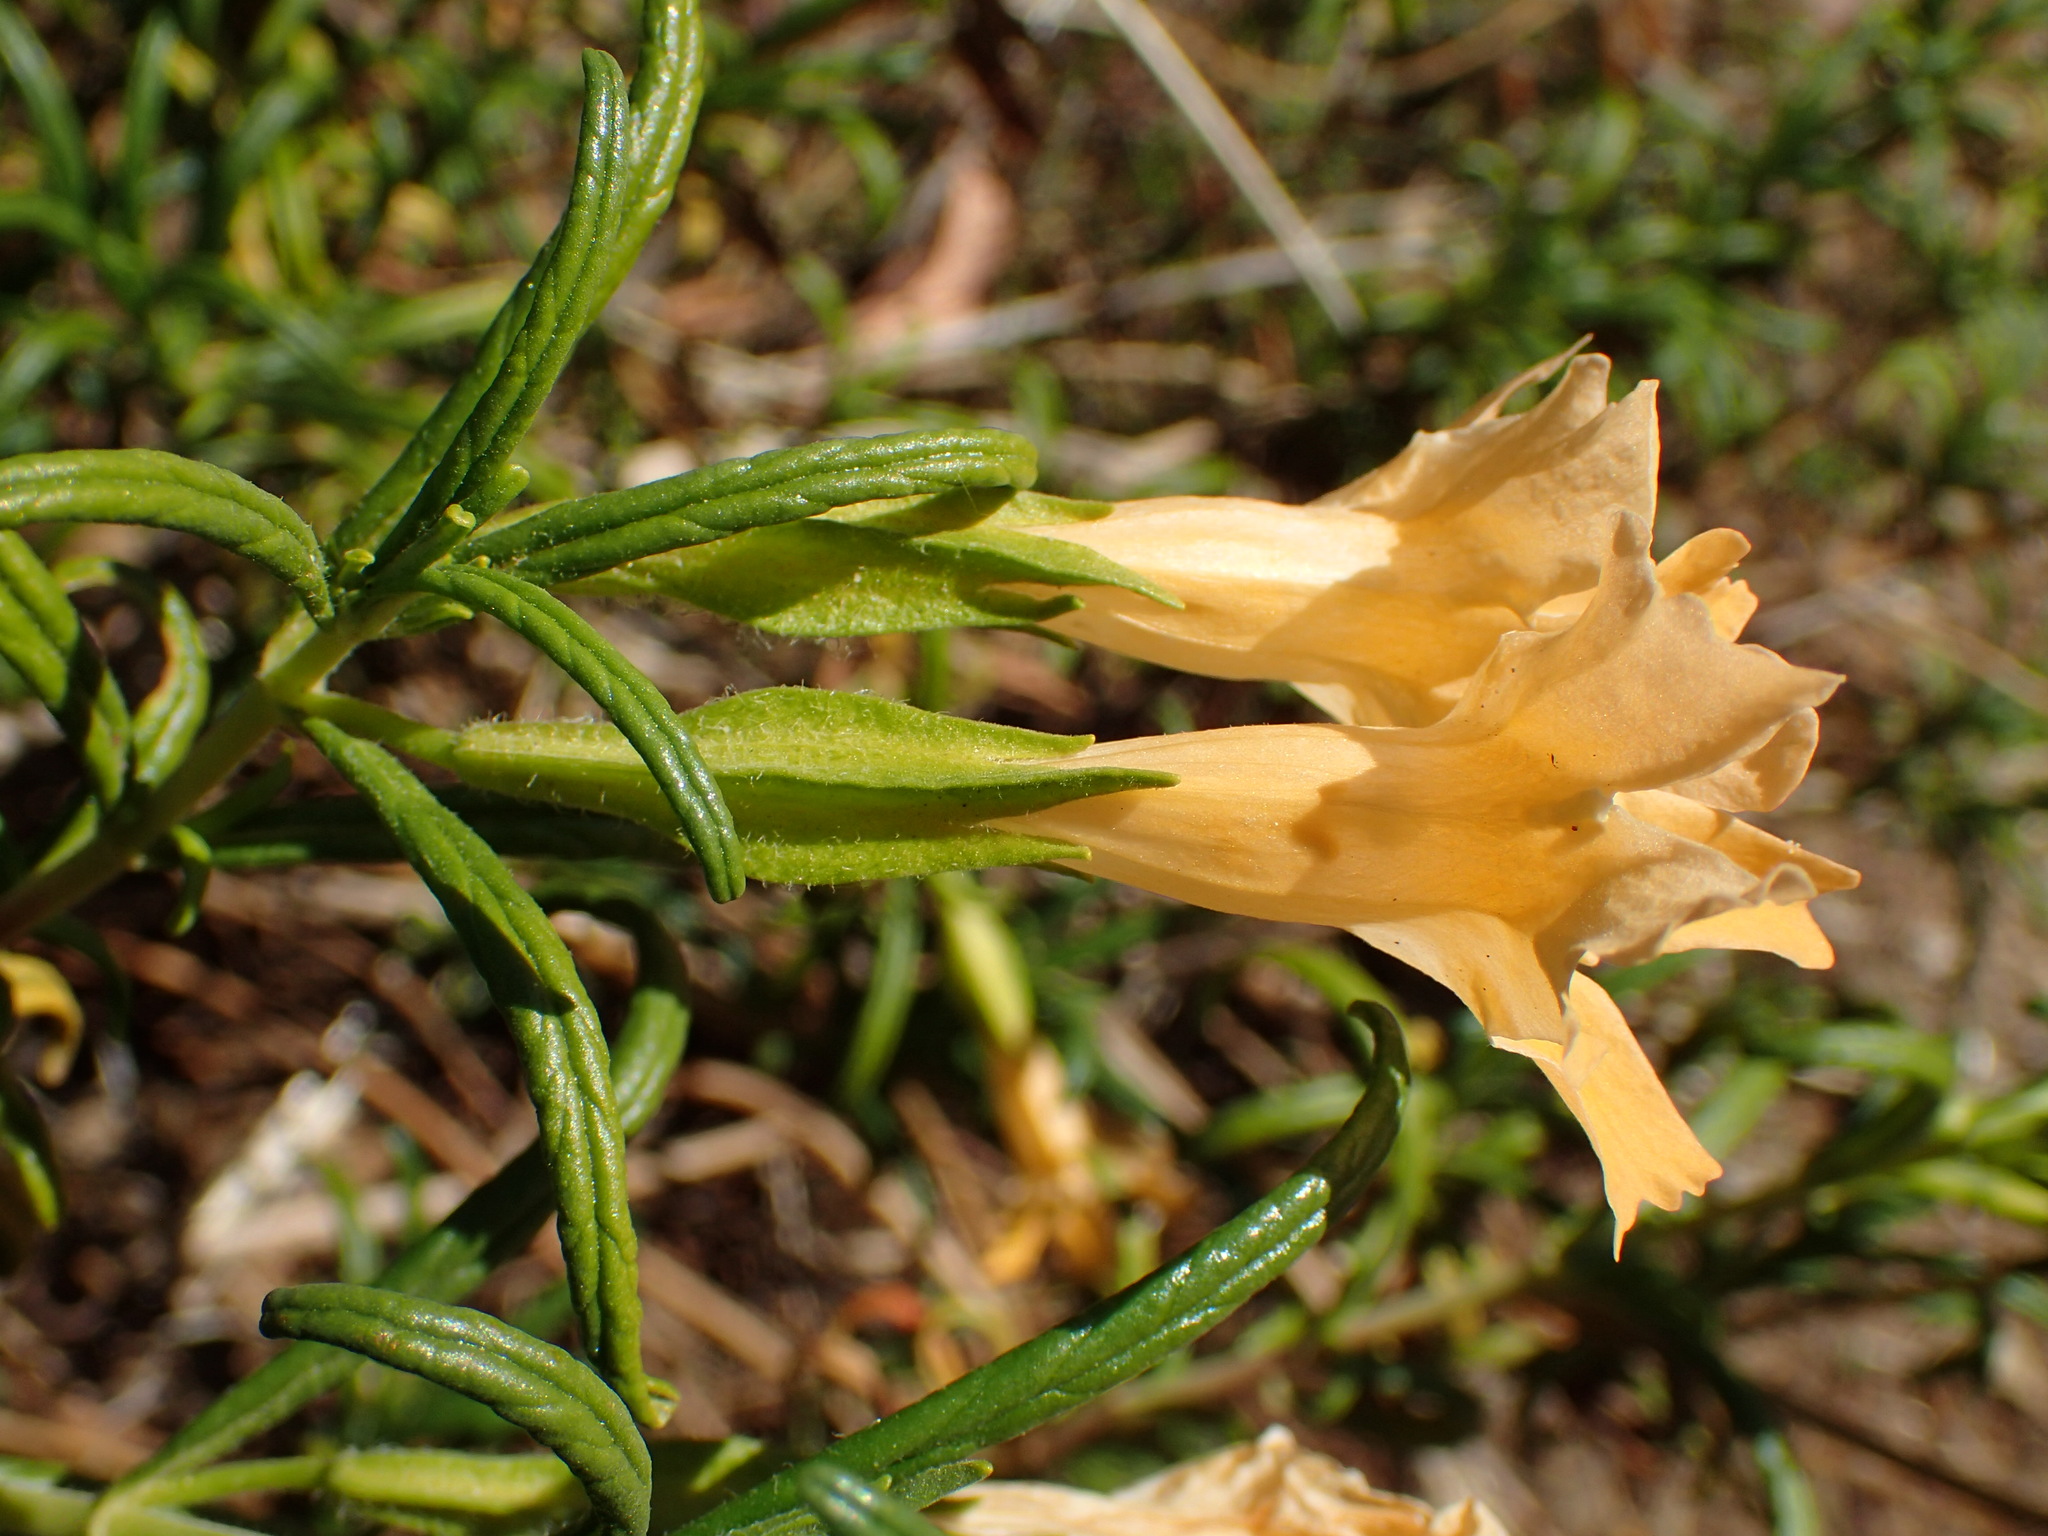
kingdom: Plantae
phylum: Tracheophyta
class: Magnoliopsida
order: Lamiales
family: Phrymaceae
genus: Diplacus
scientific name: Diplacus longiflorus
